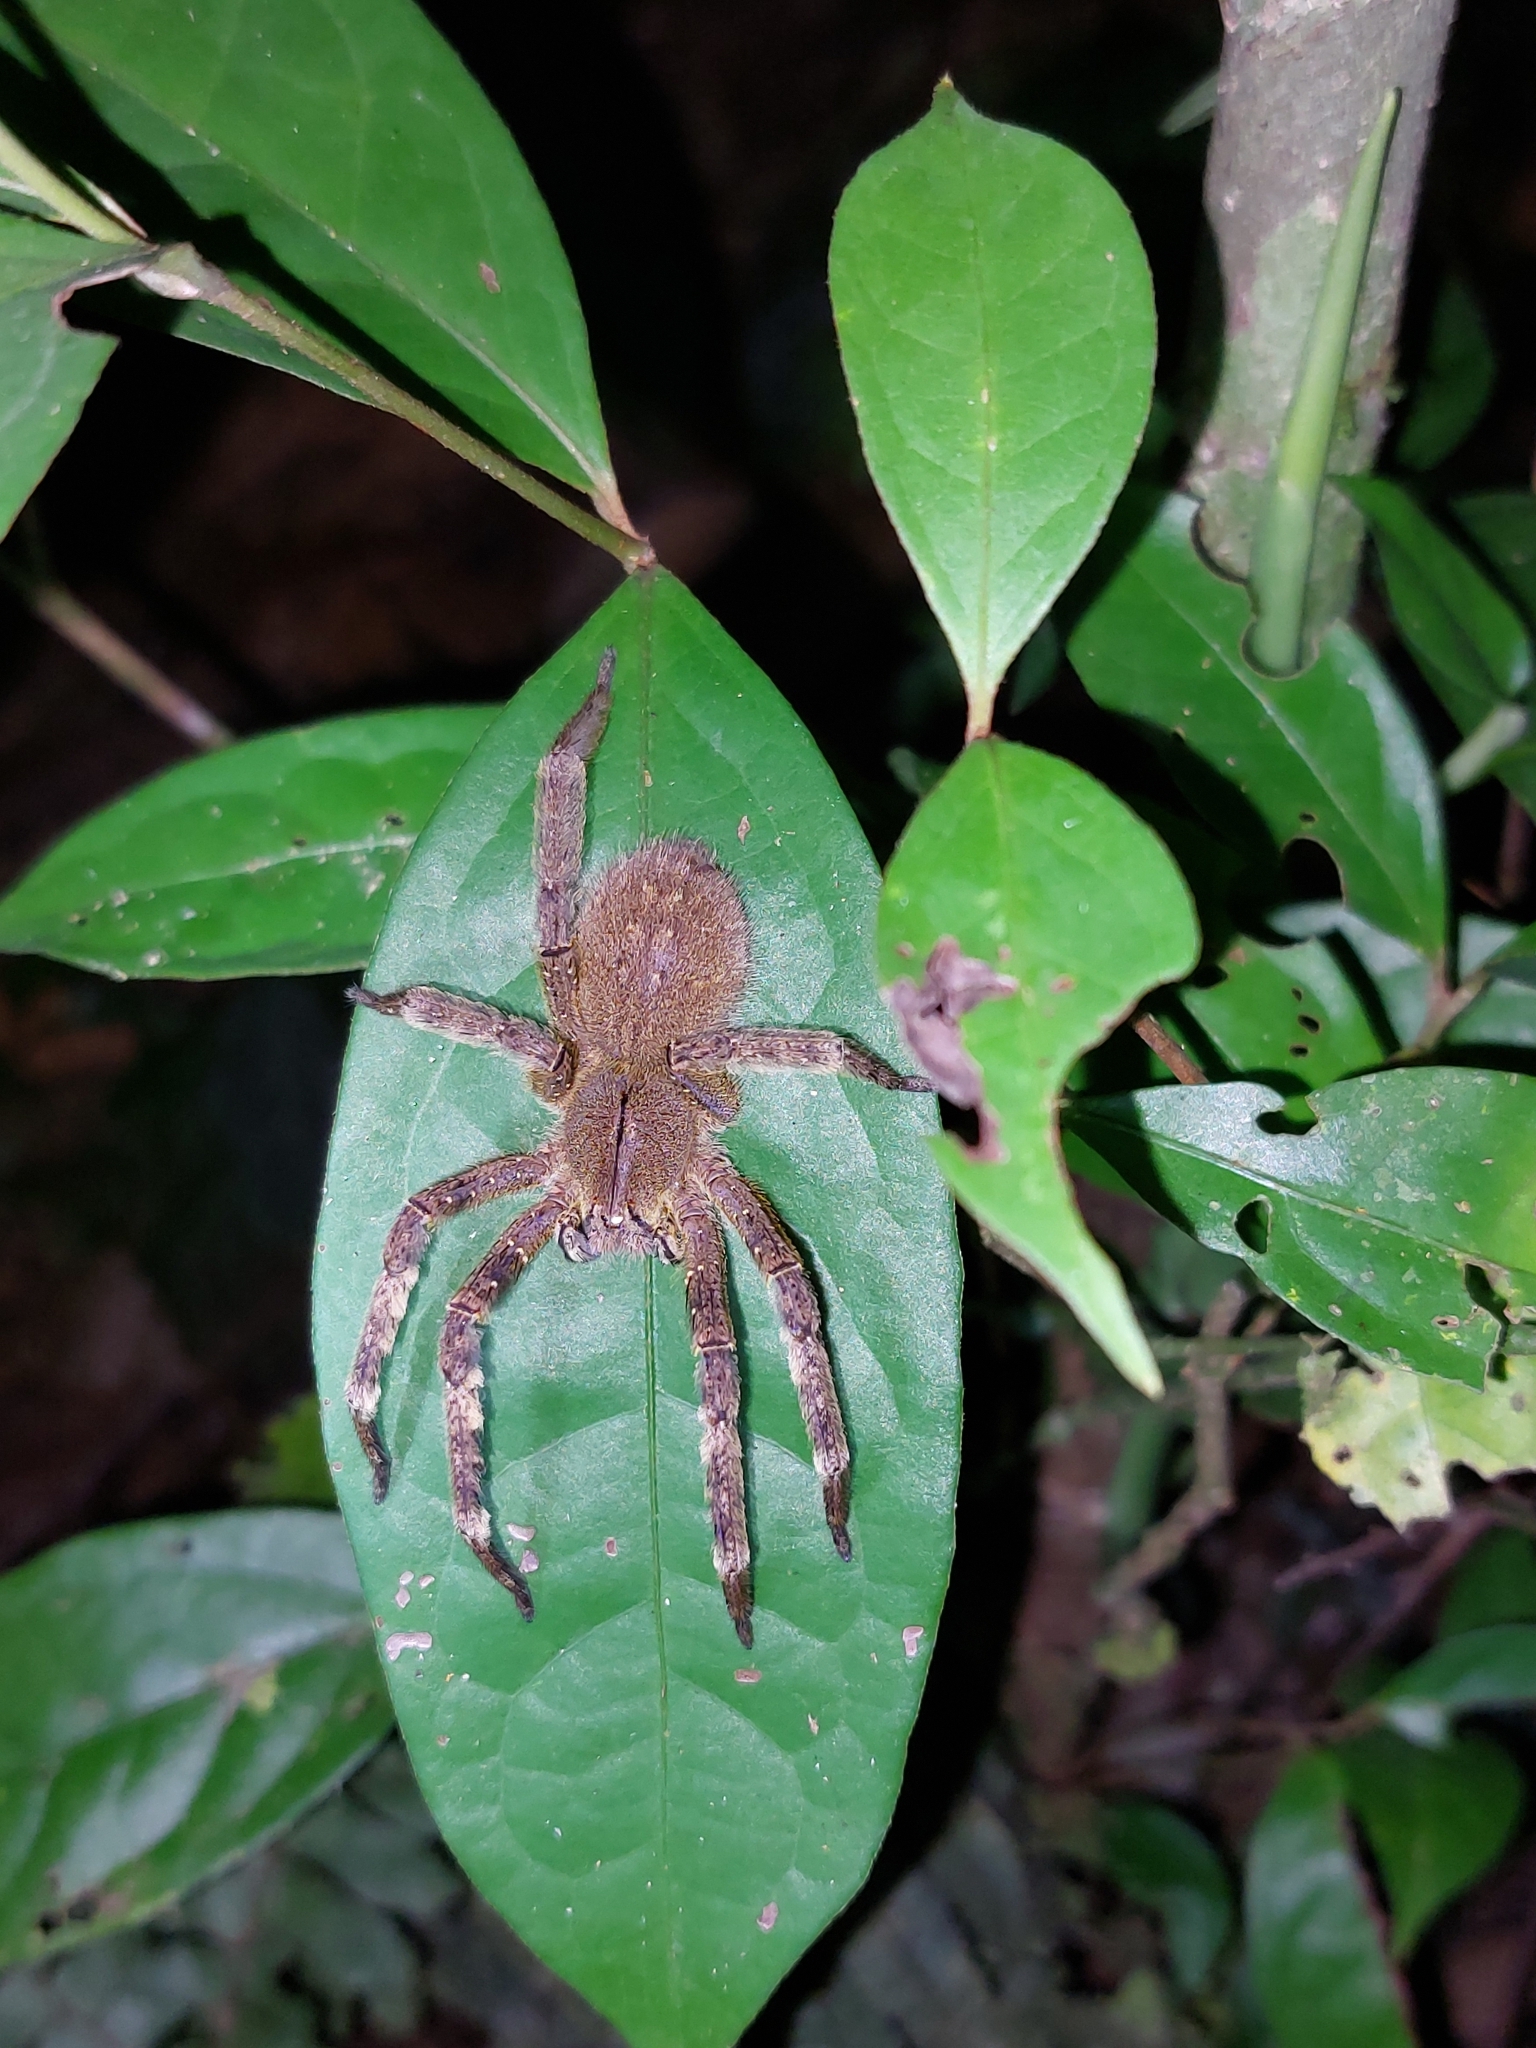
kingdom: Animalia
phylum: Arthropoda
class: Arachnida
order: Araneae
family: Ctenidae
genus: Phoneutria
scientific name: Phoneutria fera
